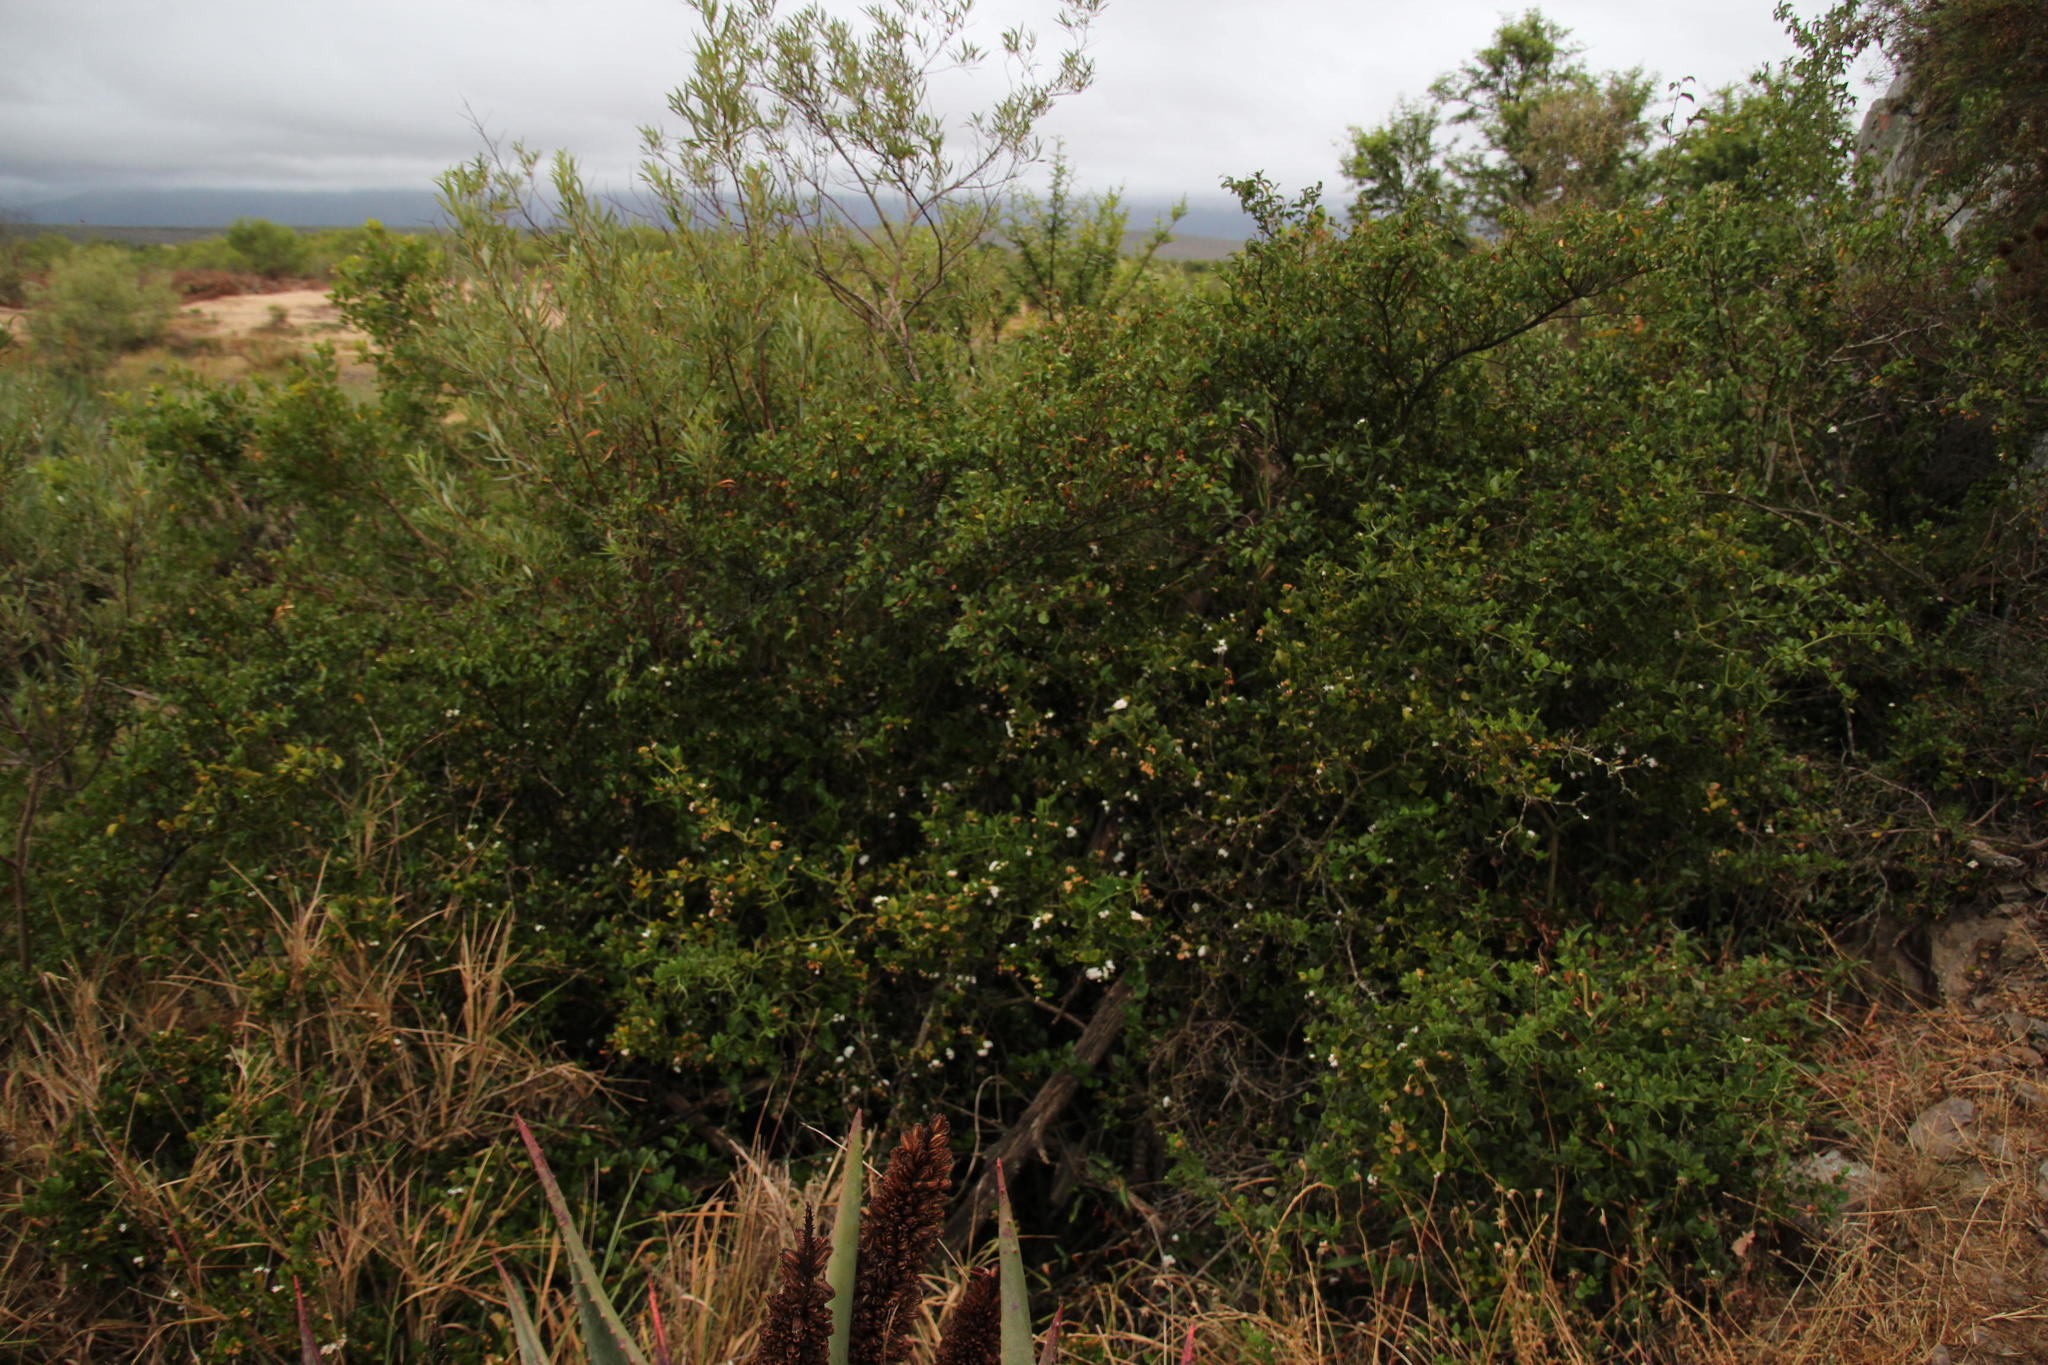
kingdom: Plantae
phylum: Tracheophyta
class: Magnoliopsida
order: Gentianales
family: Apocynaceae
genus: Carissa
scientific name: Carissa bispinosa
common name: Forest num-num
